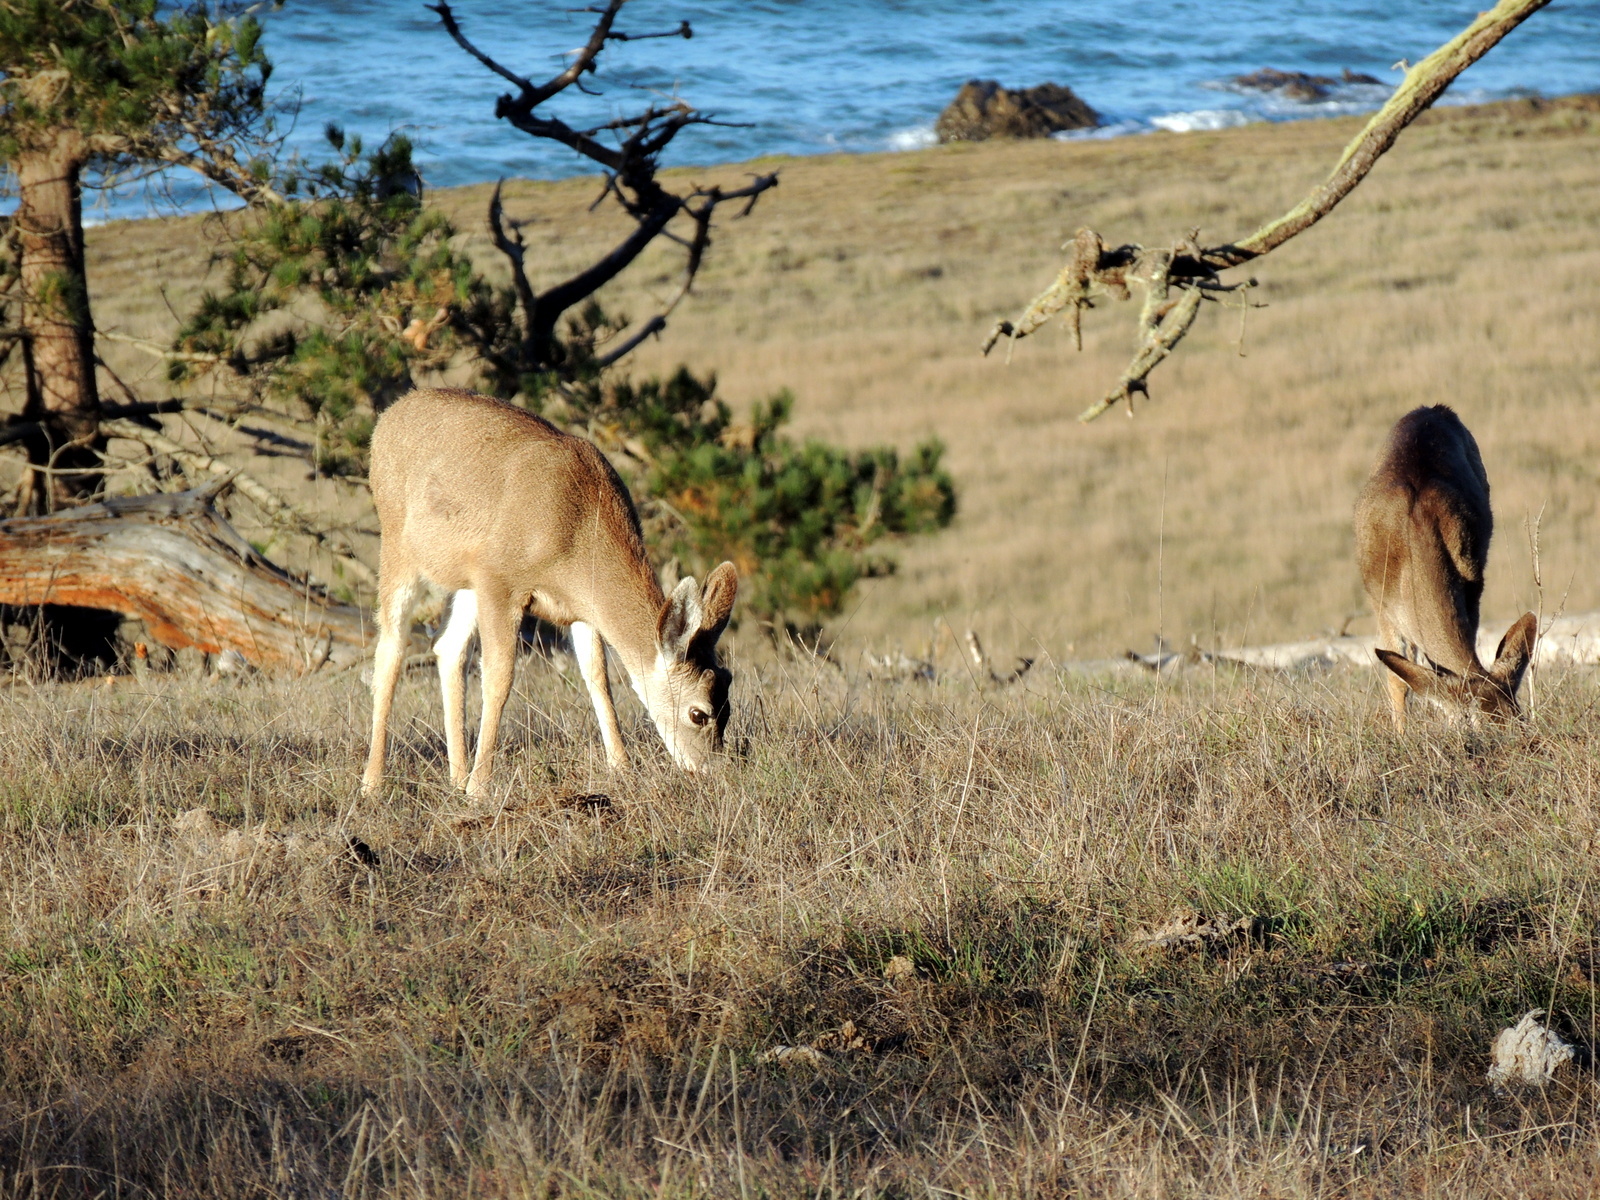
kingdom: Animalia
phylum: Chordata
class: Mammalia
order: Artiodactyla
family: Cervidae
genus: Odocoileus
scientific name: Odocoileus hemionus
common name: Mule deer
